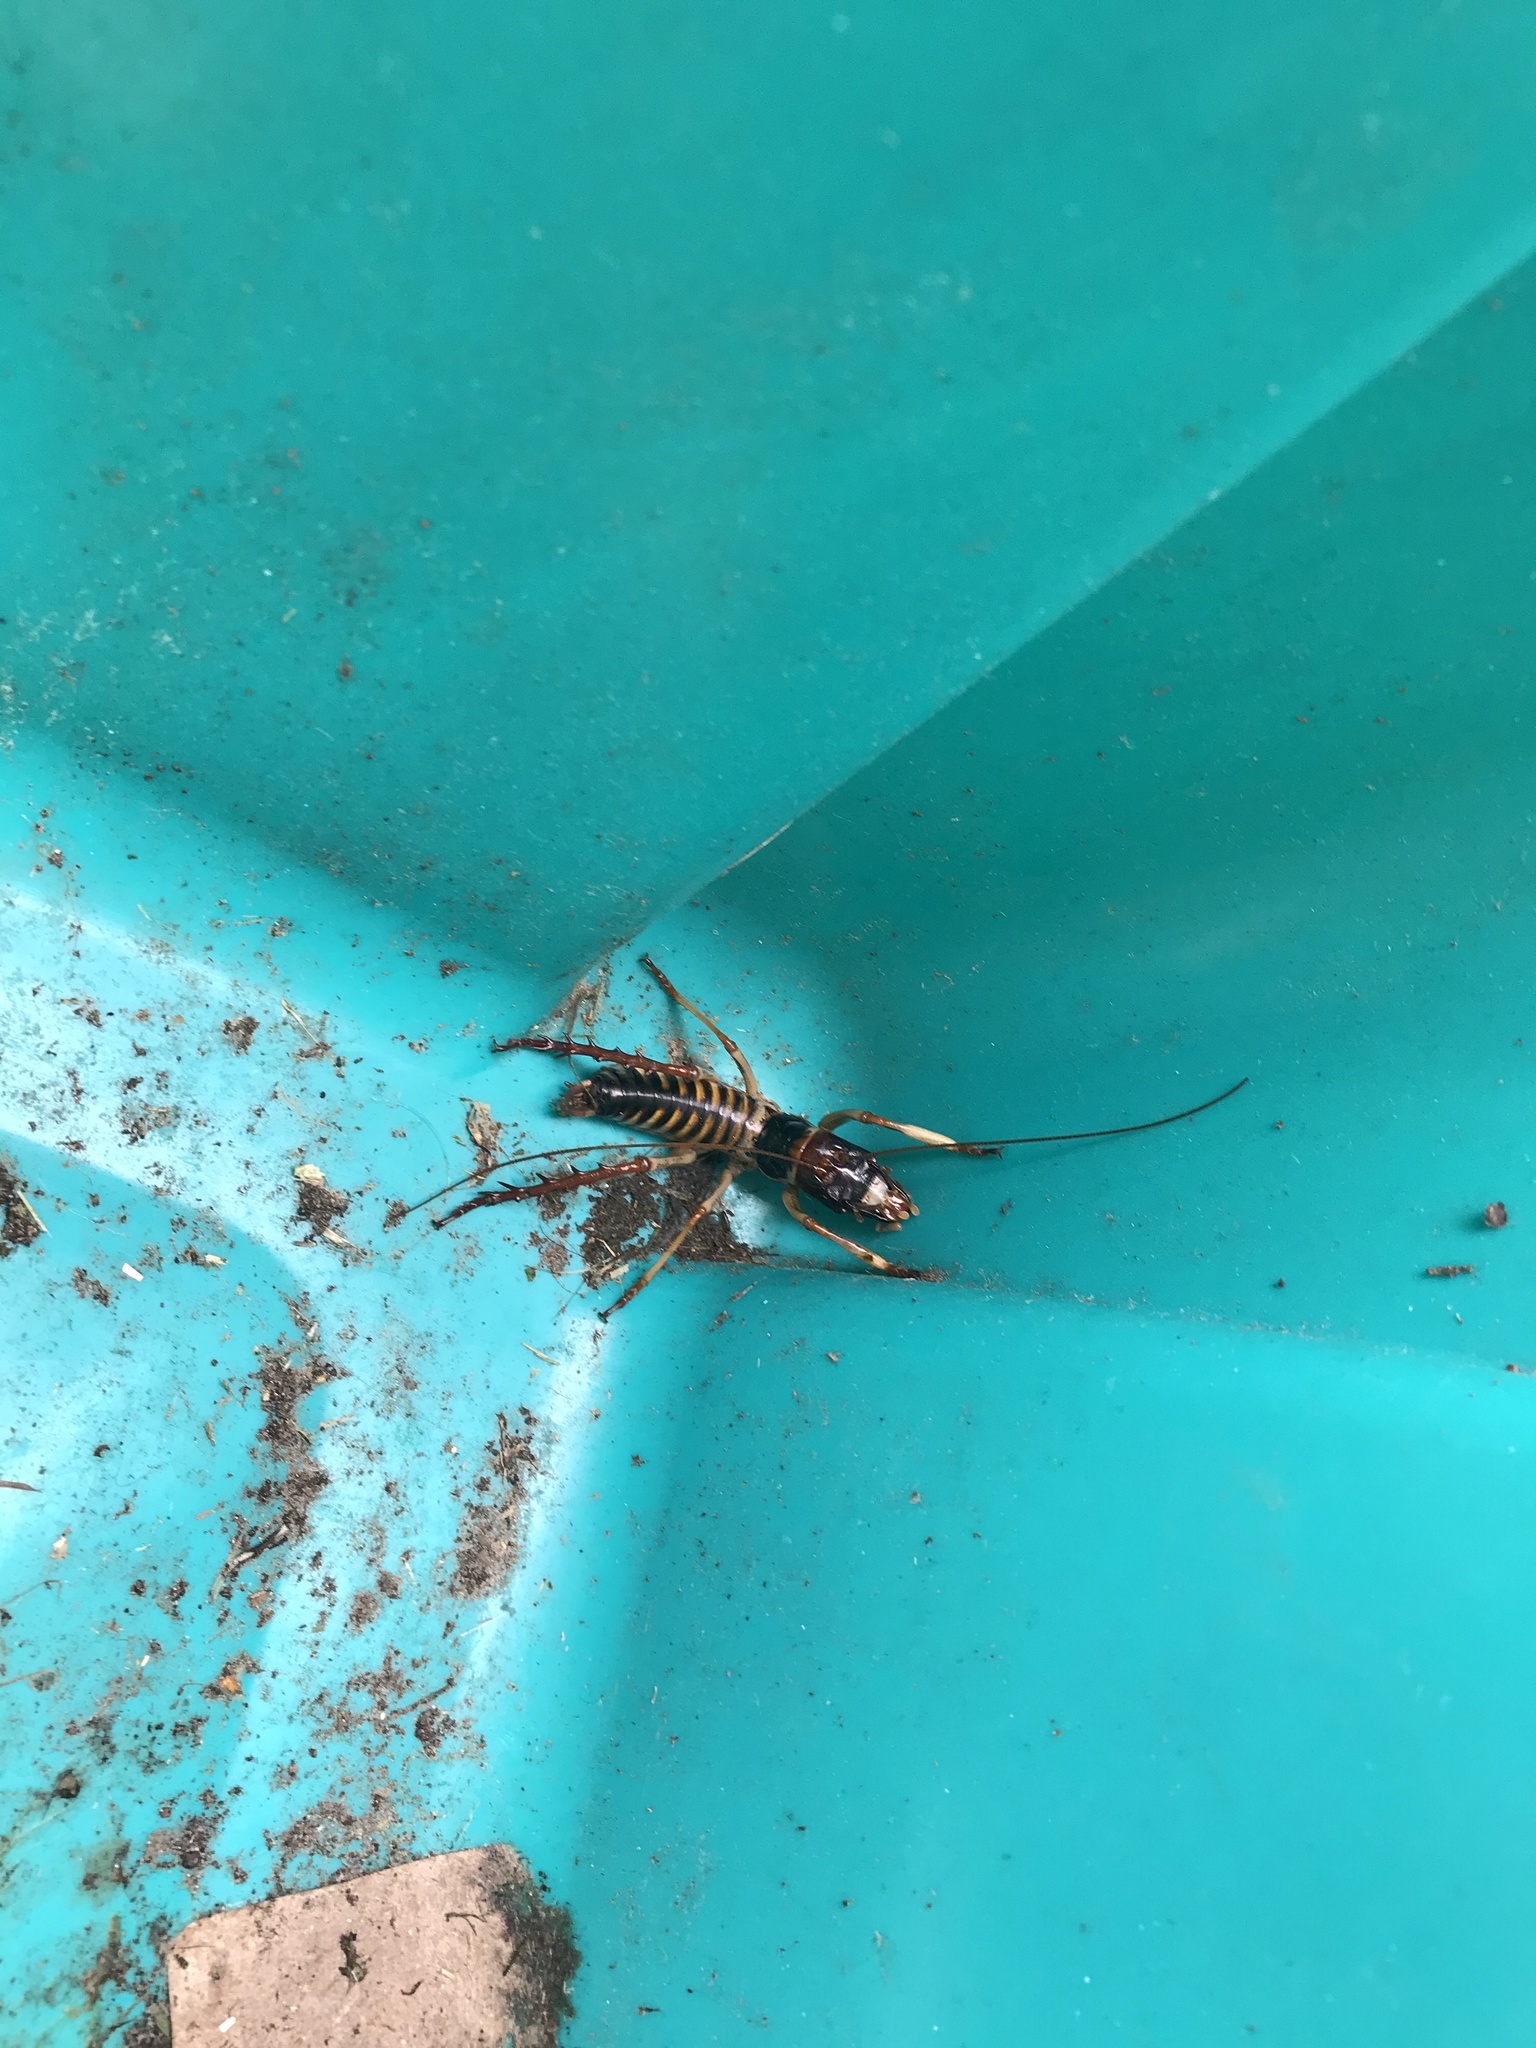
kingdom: Animalia
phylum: Arthropoda
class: Insecta
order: Orthoptera
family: Anostostomatidae
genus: Hemideina
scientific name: Hemideina crassidens
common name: Wellington tree weta
